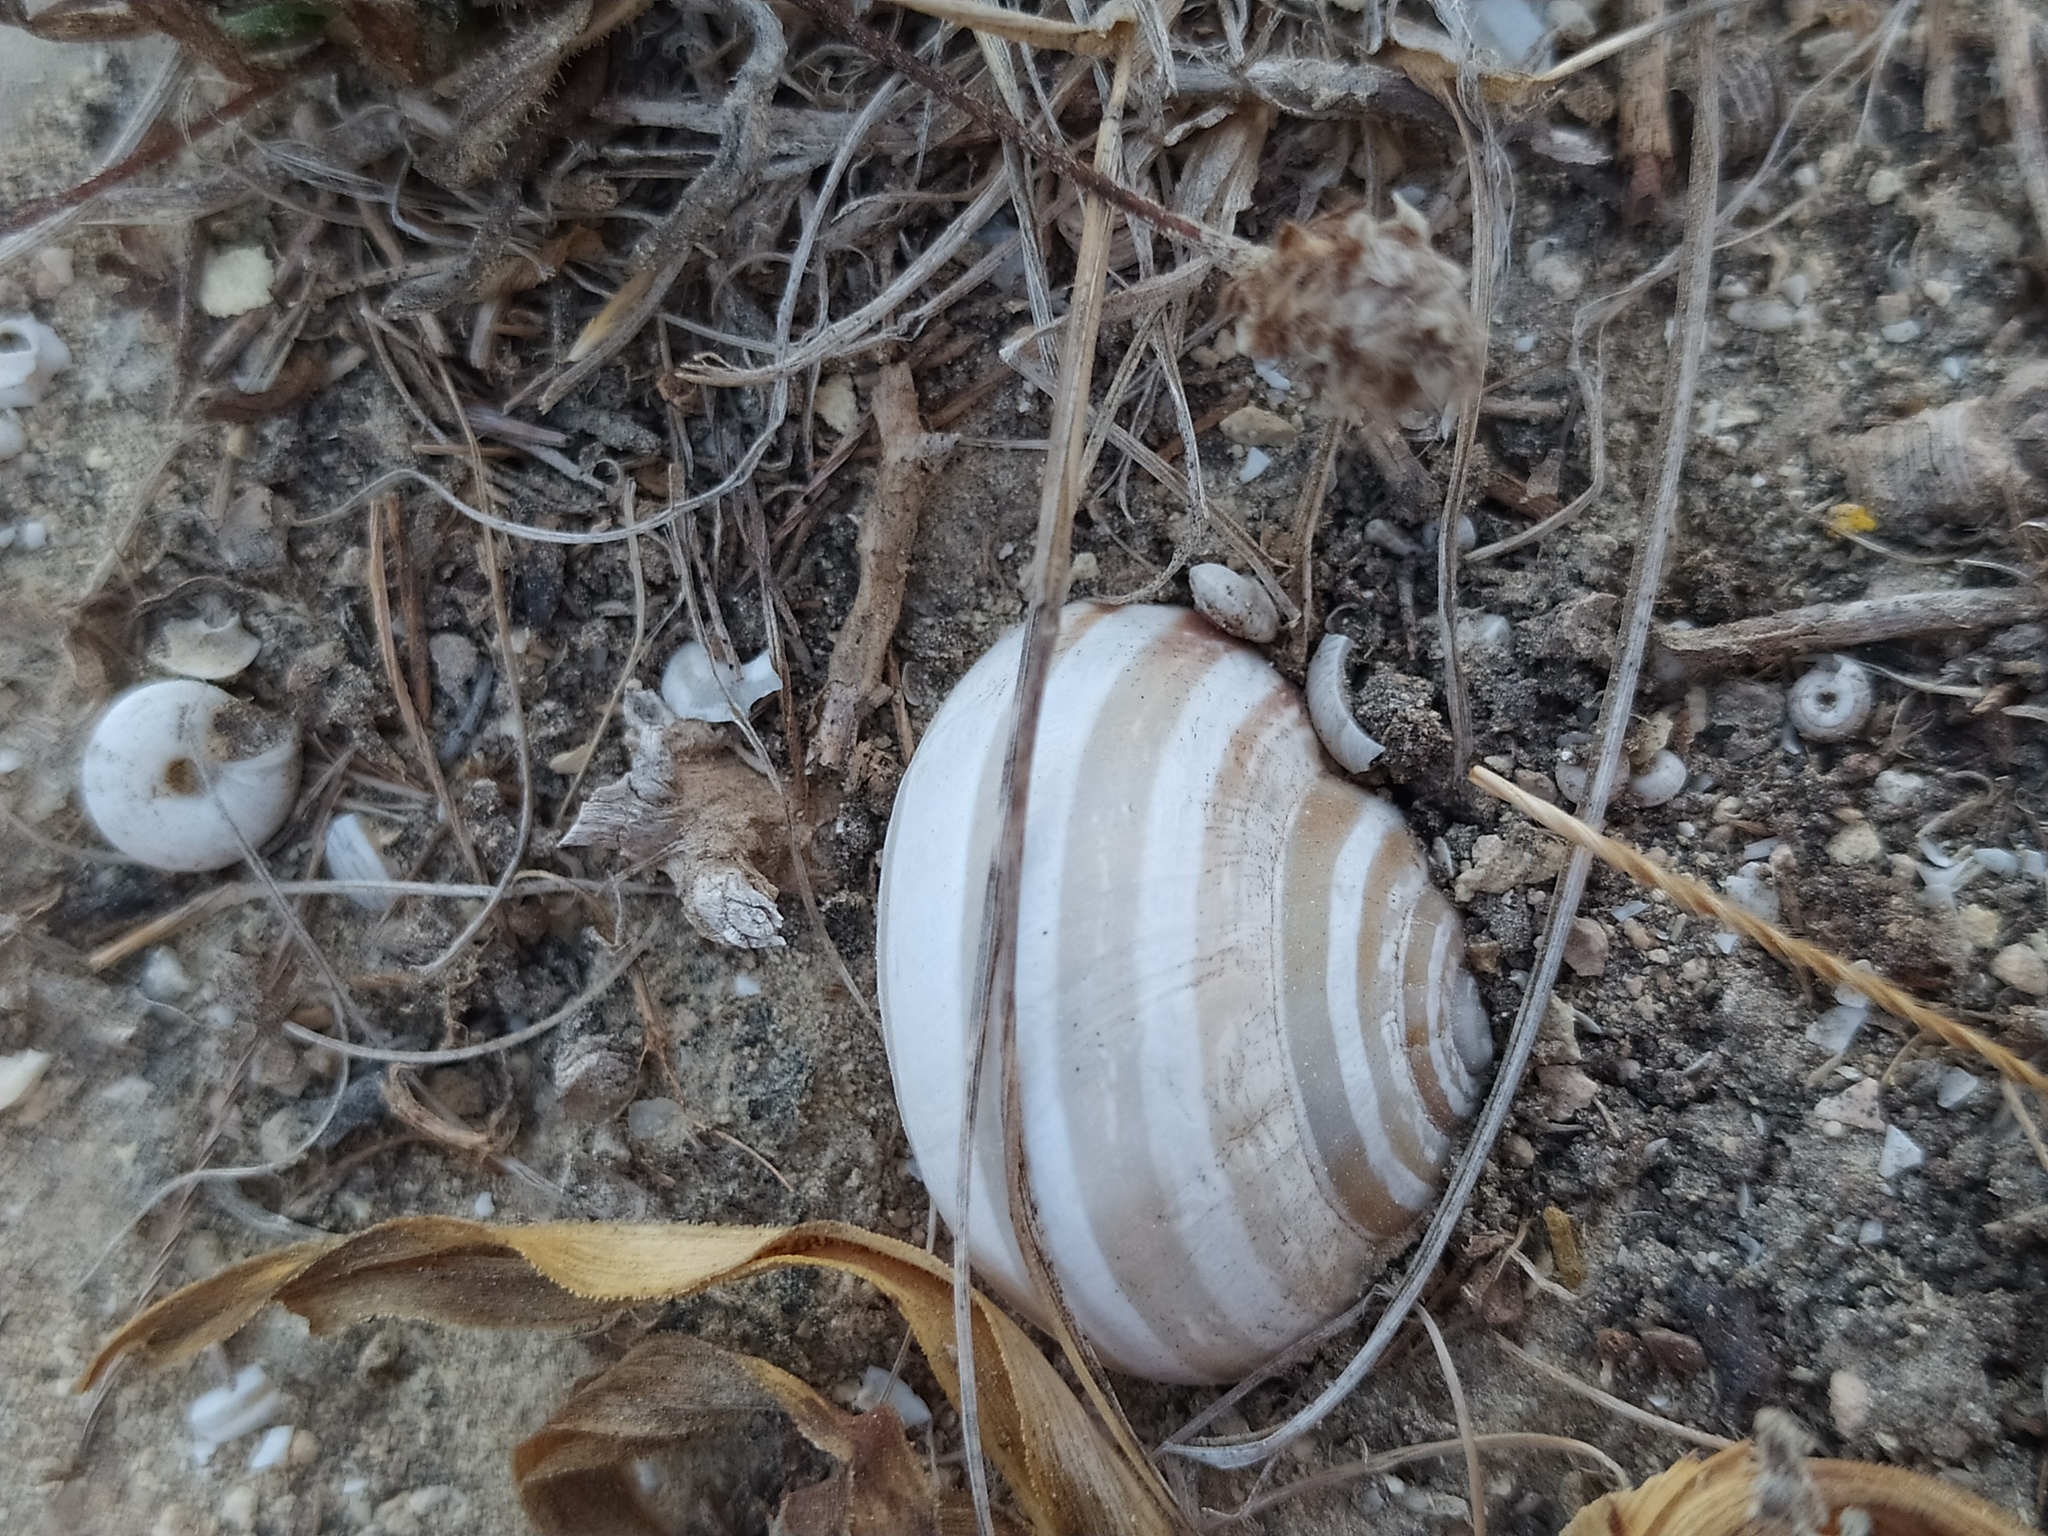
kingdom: Animalia
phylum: Mollusca
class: Gastropoda
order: Stylommatophora
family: Helicidae
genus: Eobania
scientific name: Eobania vermiculata
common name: Chocolateband snail
